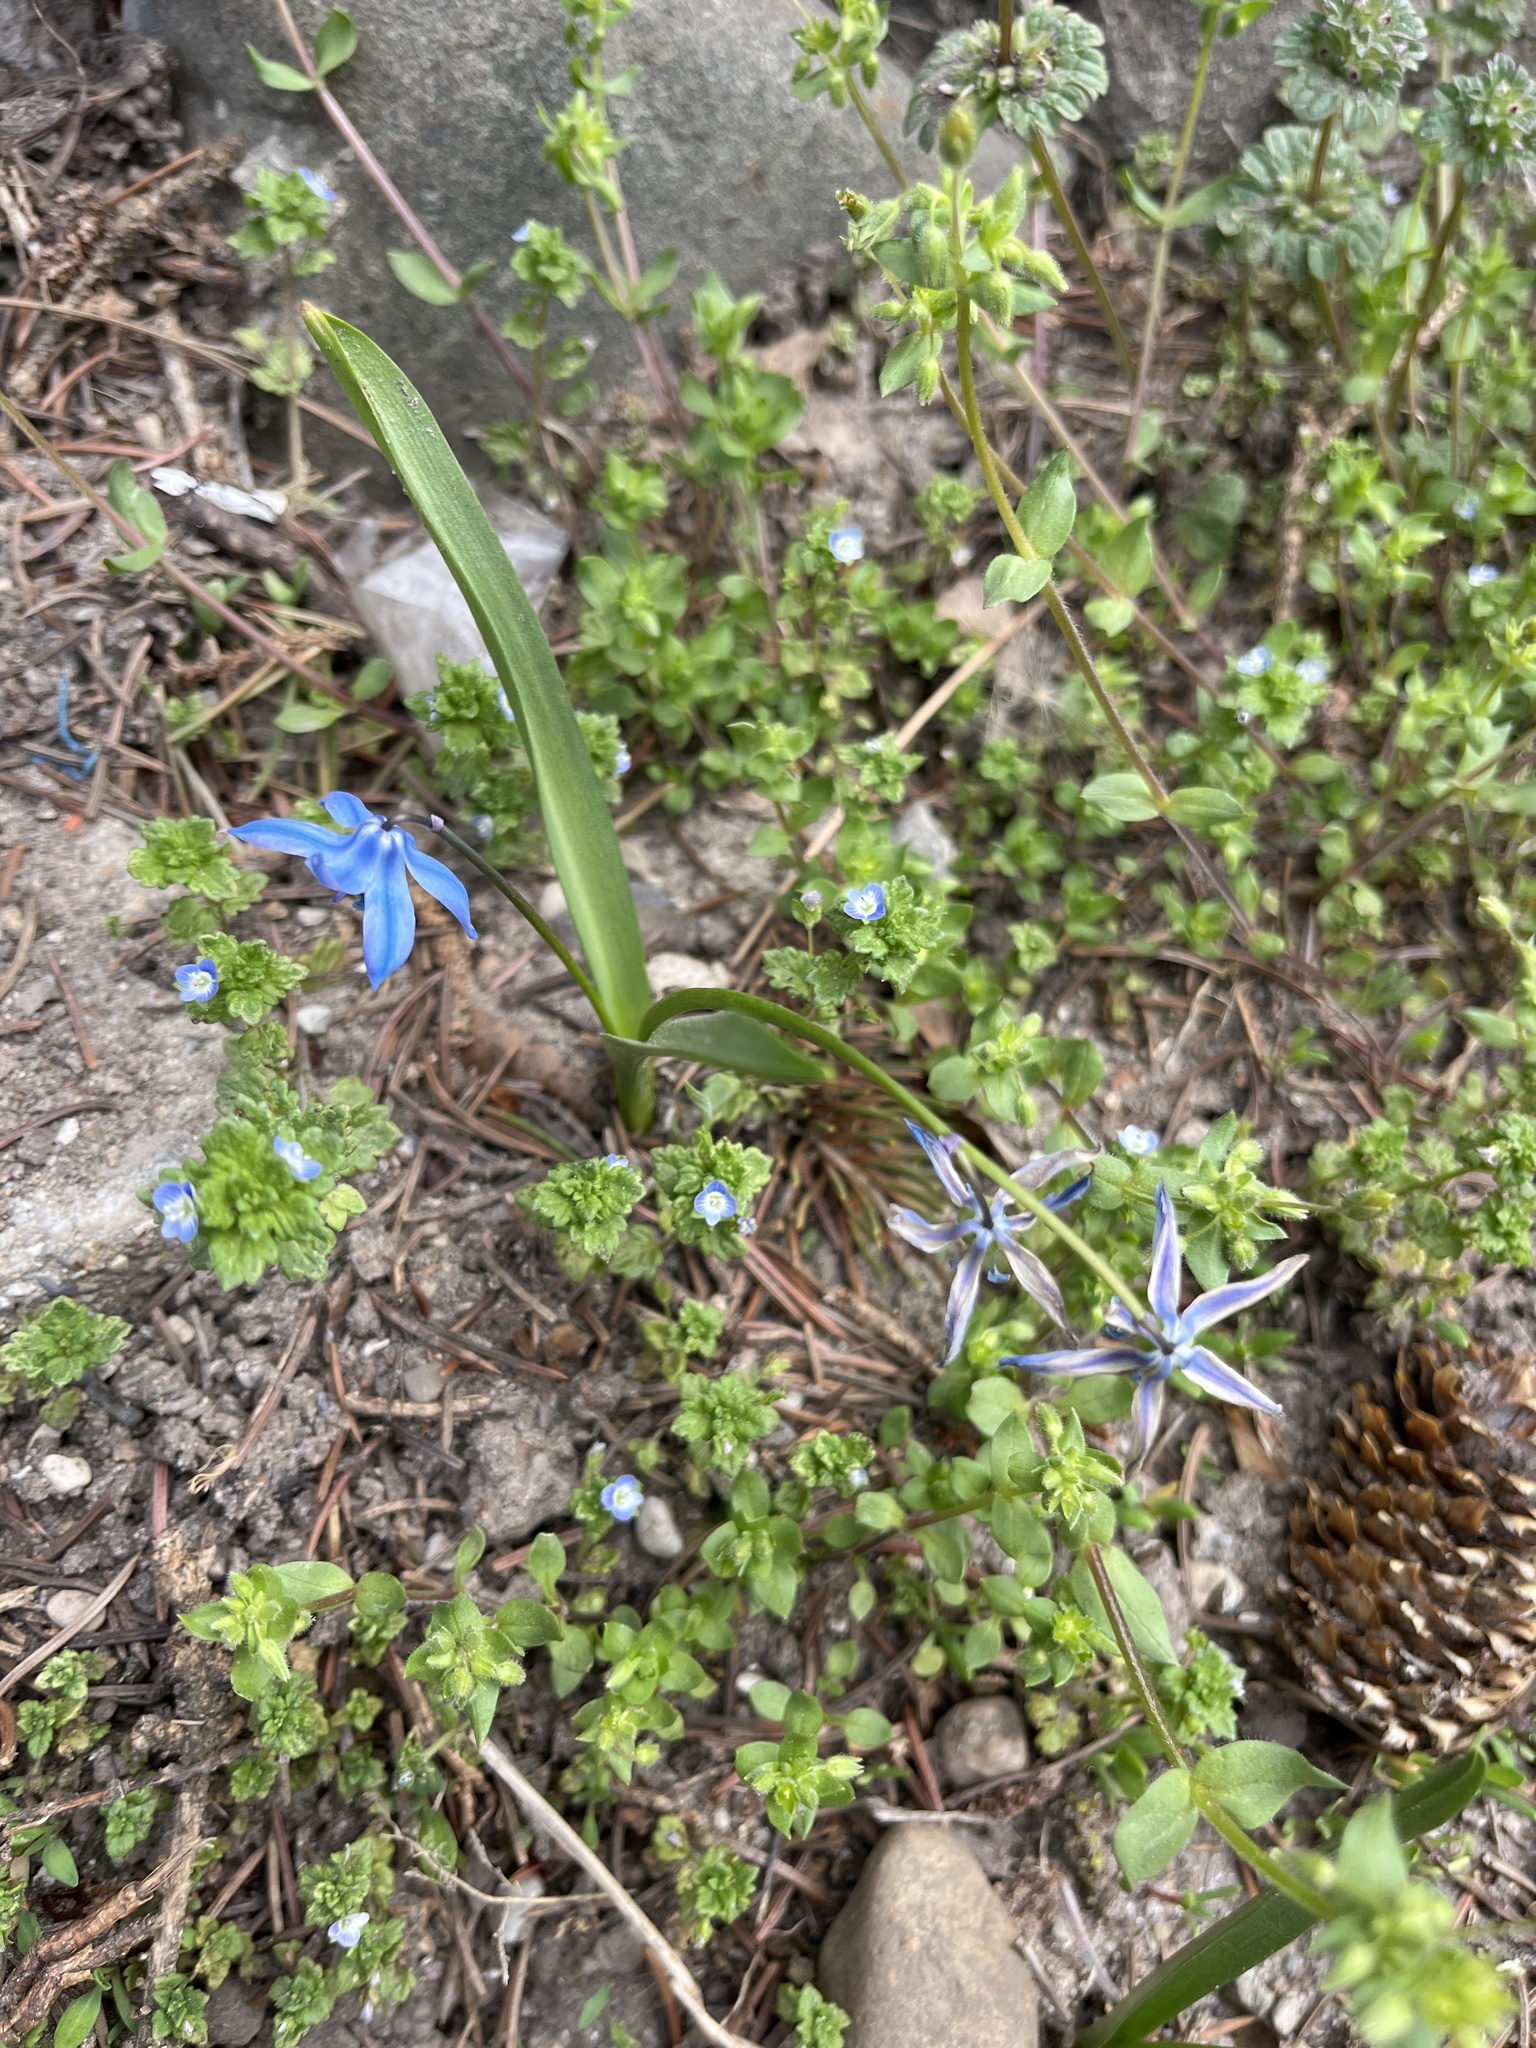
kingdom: Plantae
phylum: Tracheophyta
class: Liliopsida
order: Asparagales
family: Asparagaceae
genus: Scilla
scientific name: Scilla siberica
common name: Siberian squill
